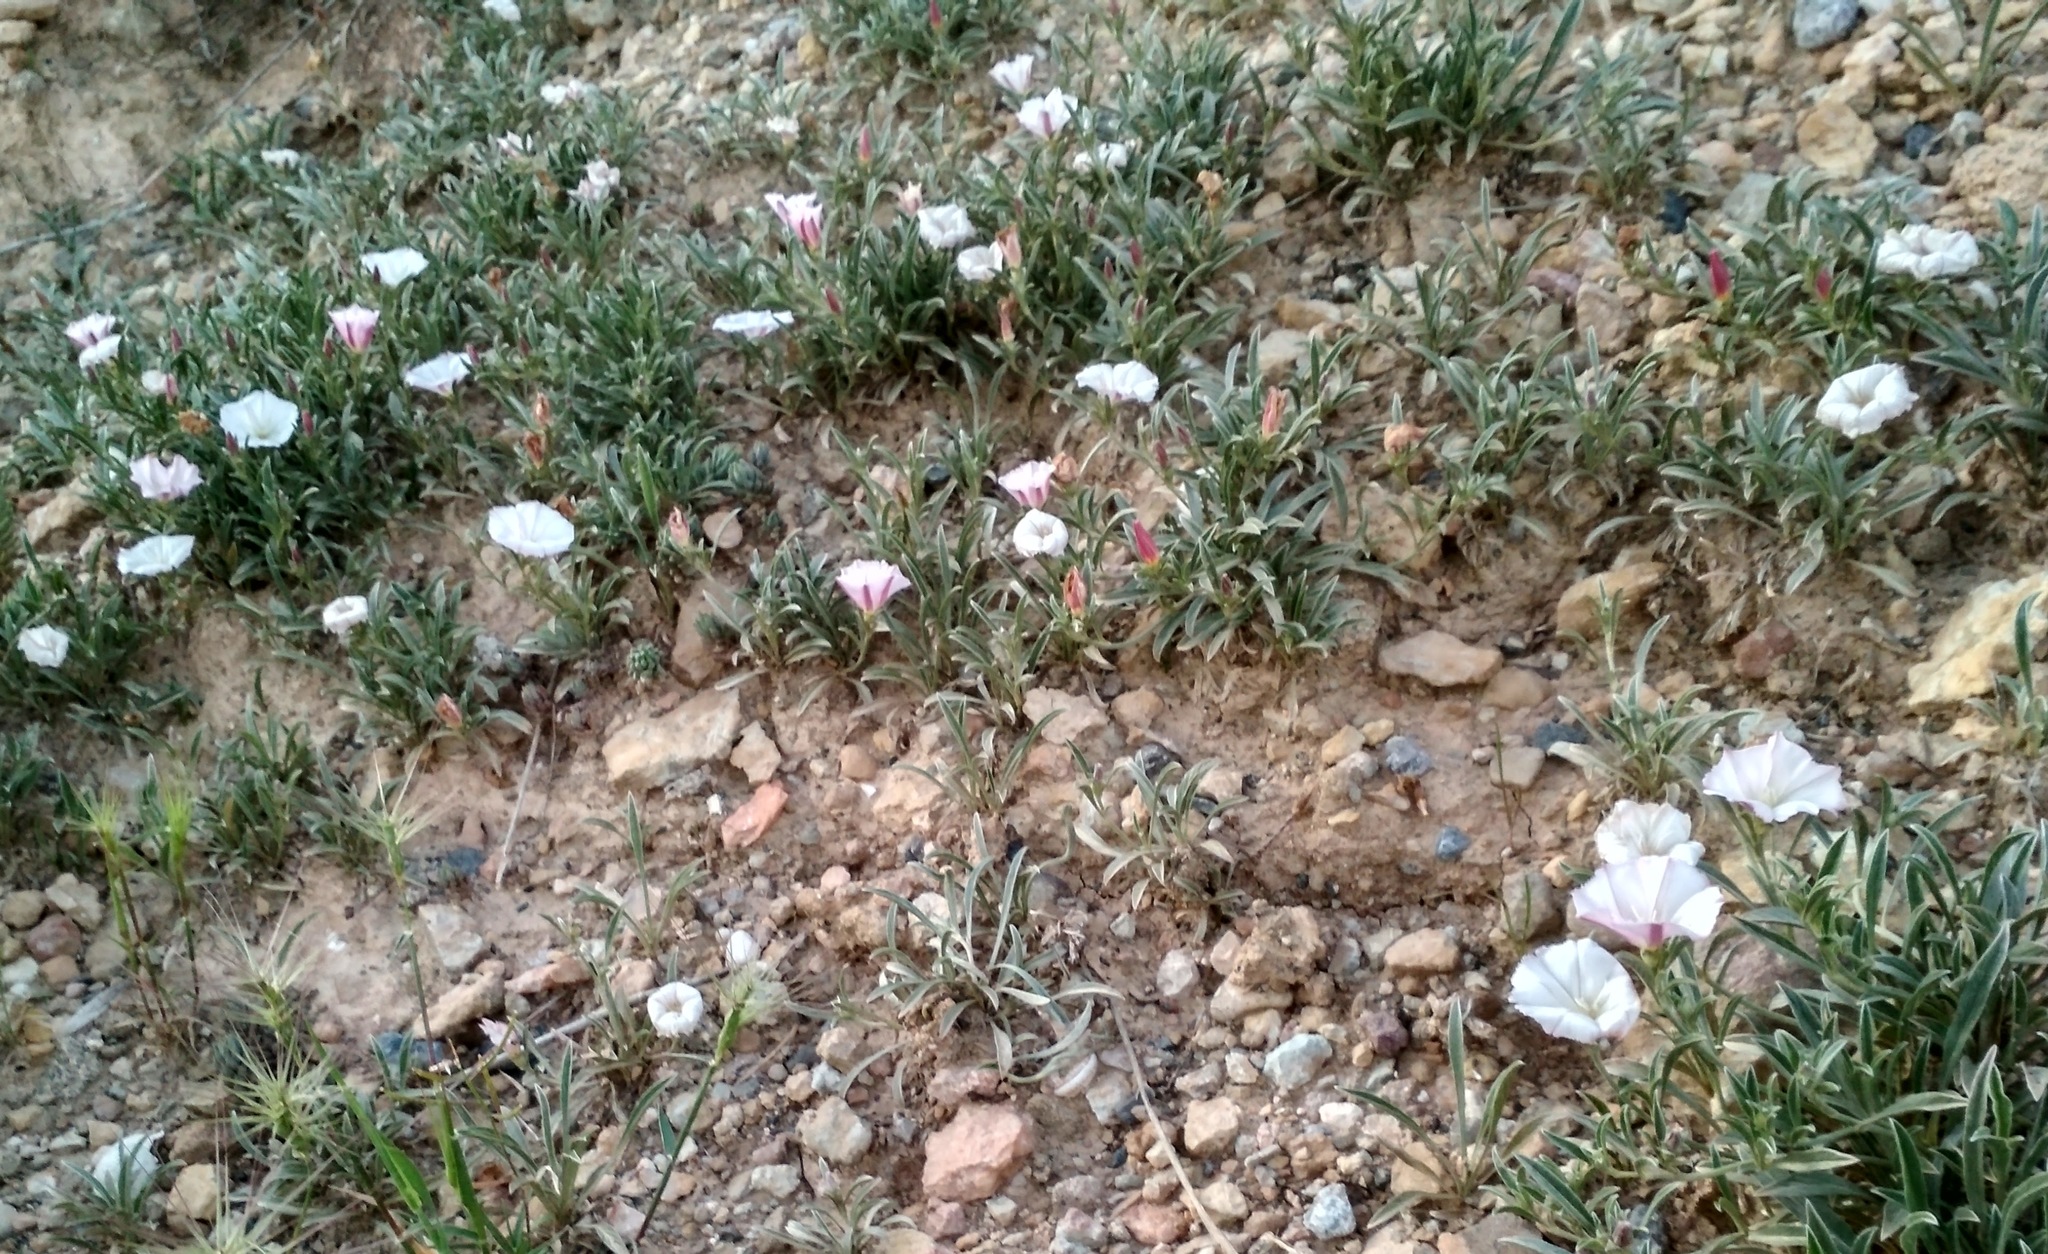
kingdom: Plantae
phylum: Tracheophyta
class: Magnoliopsida
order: Solanales
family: Convolvulaceae
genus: Convolvulus
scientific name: Convolvulus lineatus
